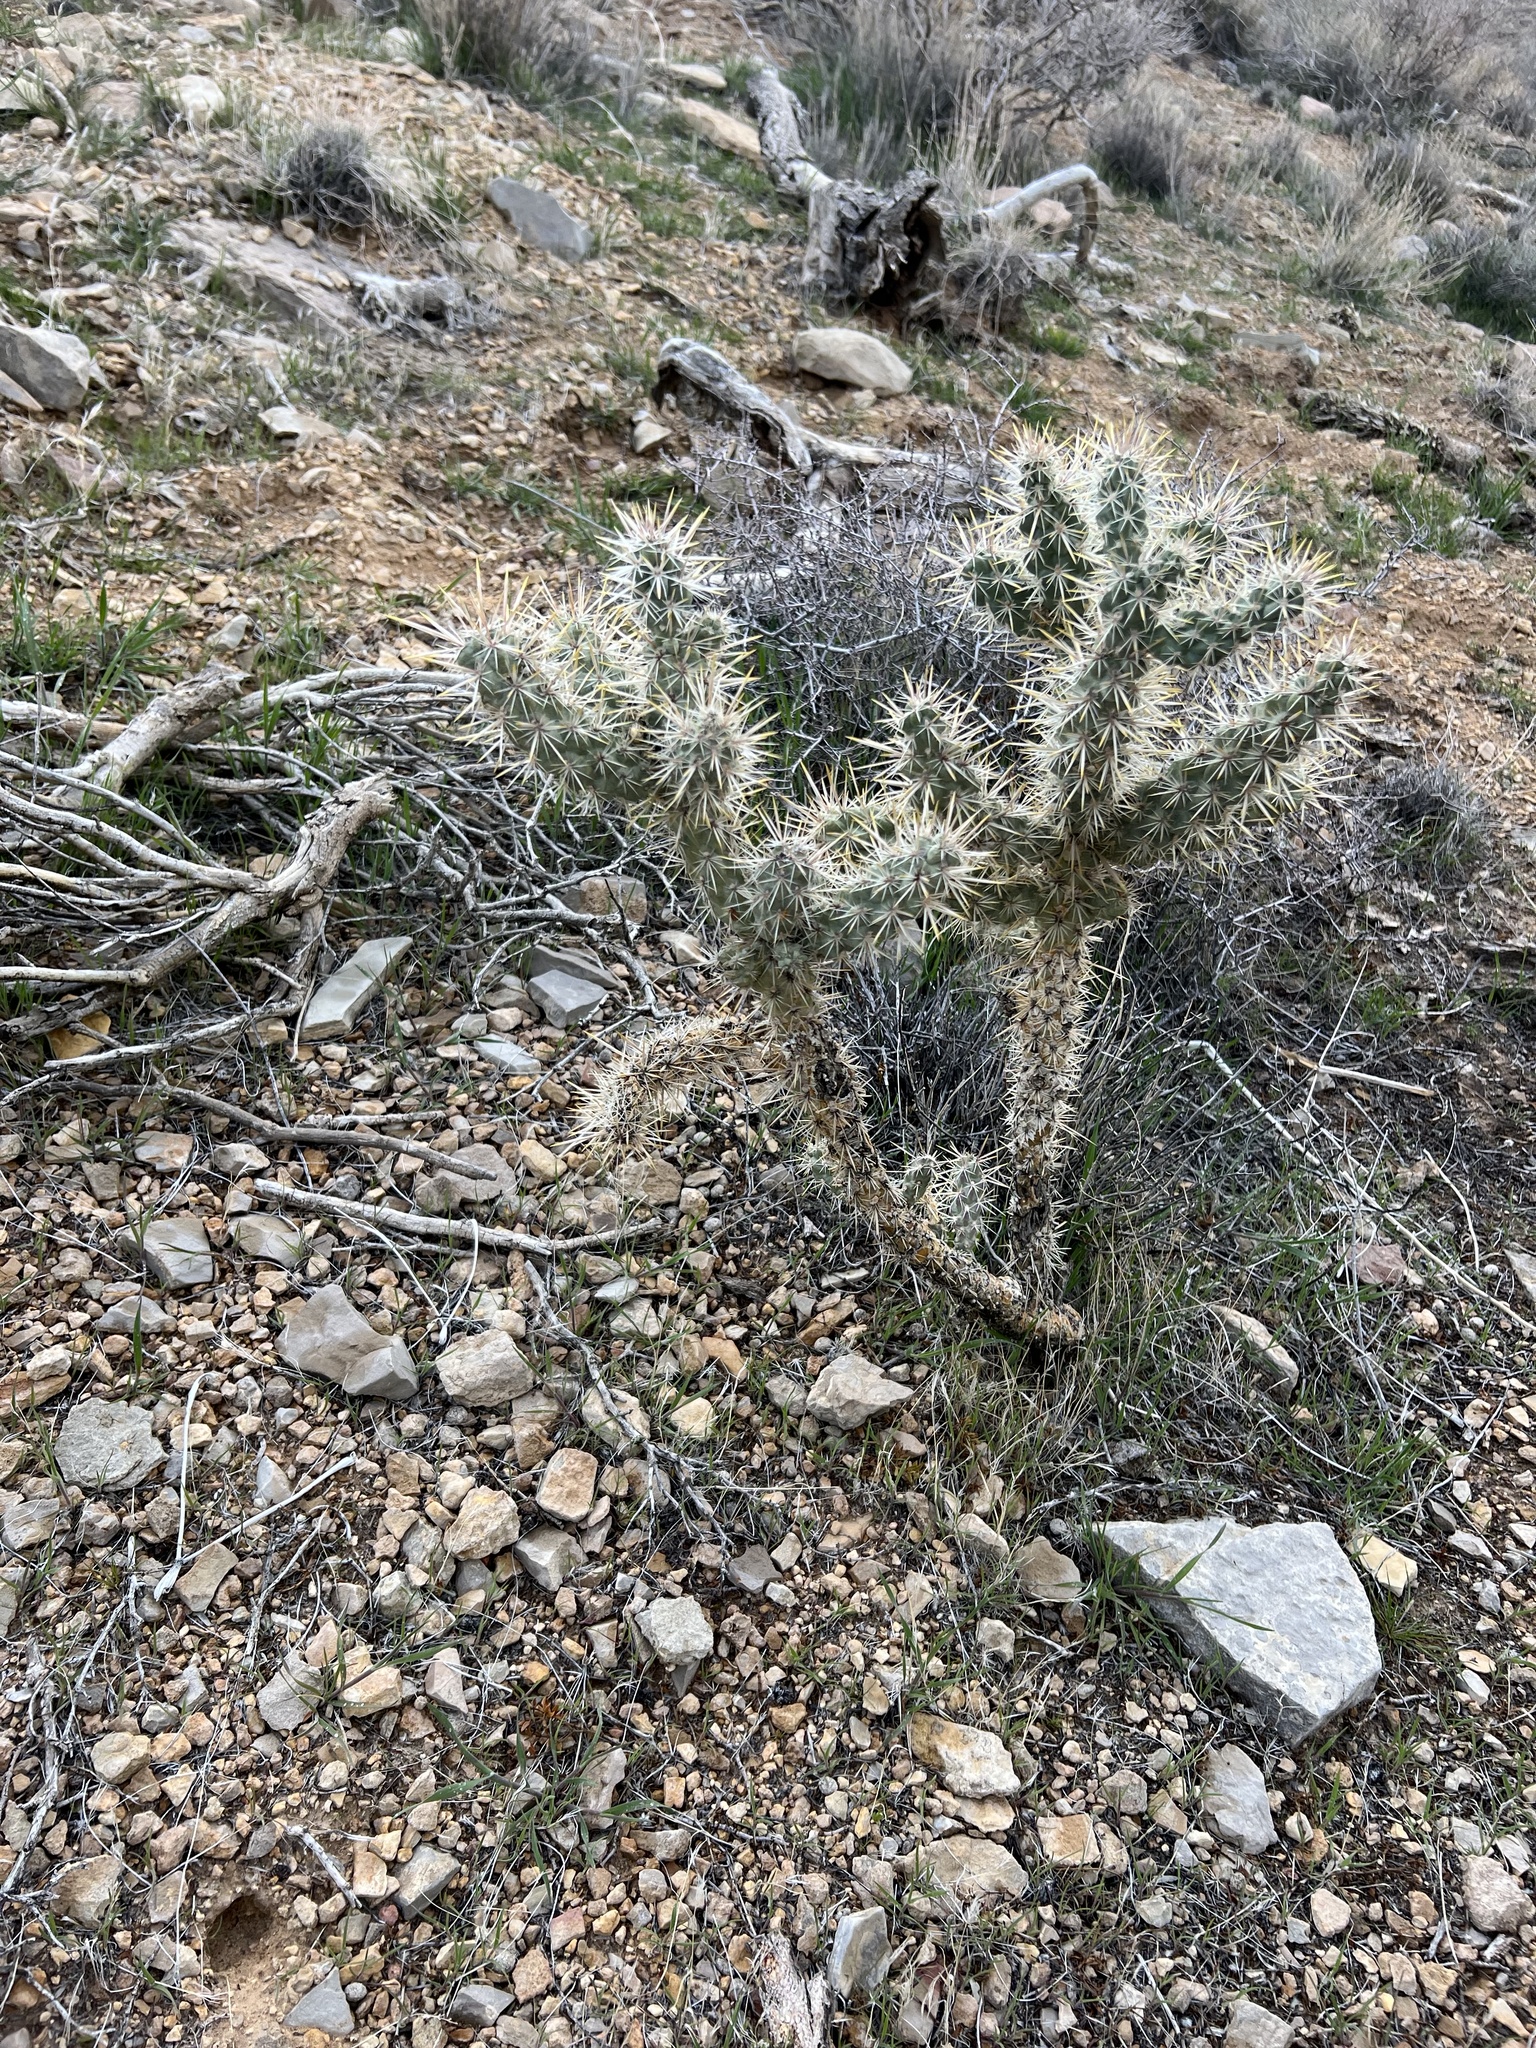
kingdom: Plantae
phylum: Tracheophyta
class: Magnoliopsida
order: Caryophyllales
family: Cactaceae
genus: Cylindropuntia
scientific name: Cylindropuntia echinocarpa
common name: Ground cholla
